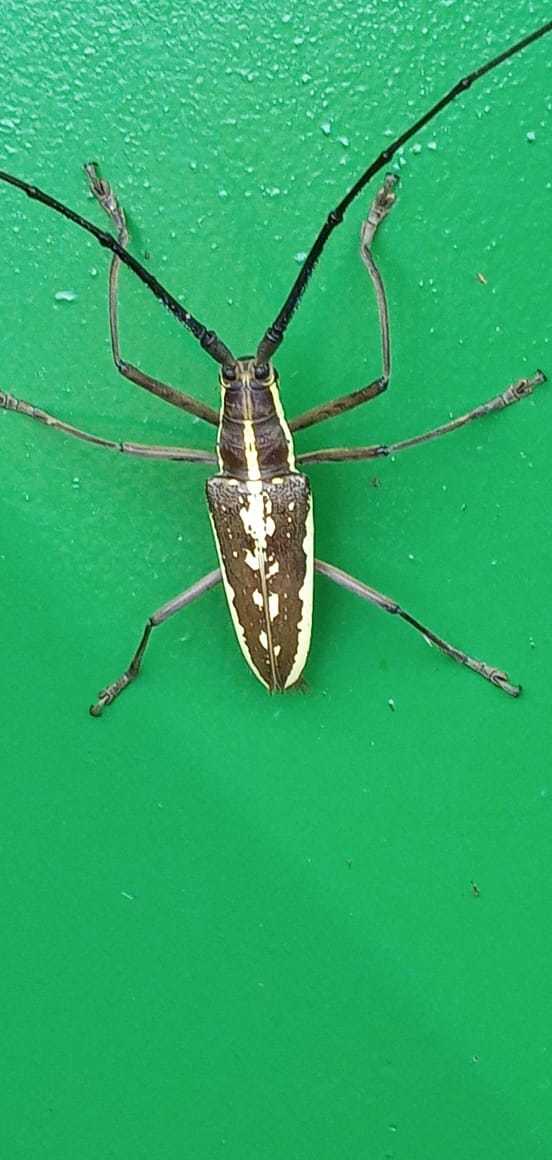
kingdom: Animalia
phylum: Arthropoda
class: Insecta
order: Coleoptera
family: Cerambycidae
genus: Neoptychodes
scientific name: Neoptychodes trilineatus
